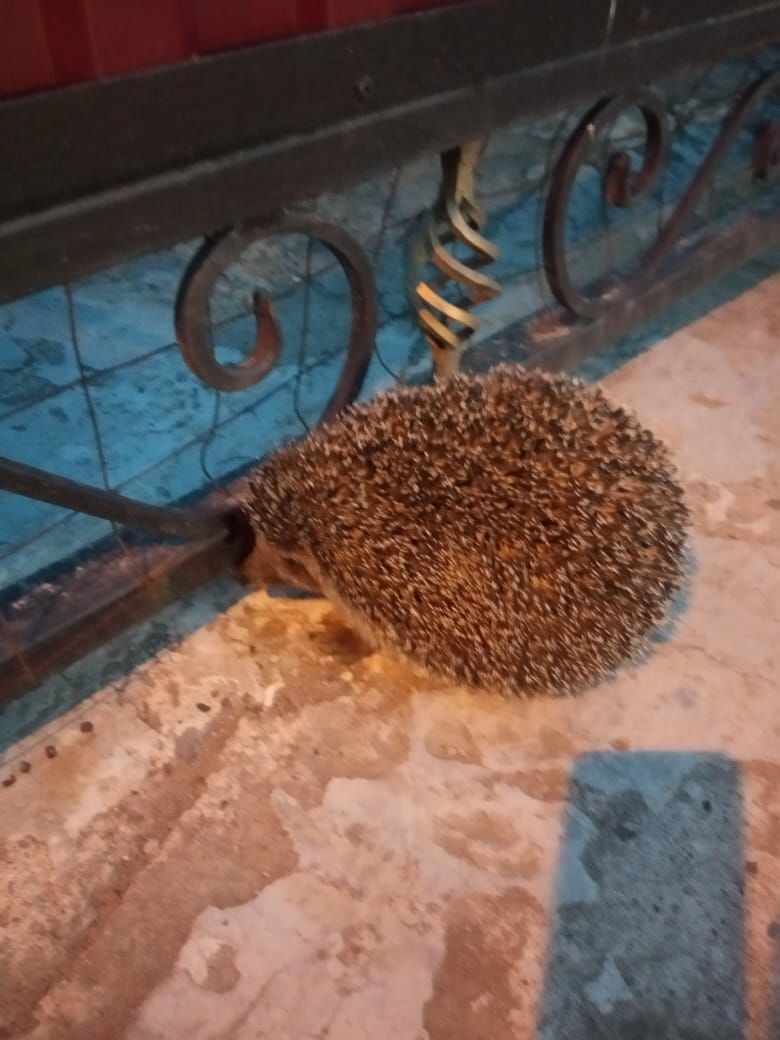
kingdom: Animalia
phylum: Chordata
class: Mammalia
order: Erinaceomorpha
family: Erinaceidae
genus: Erinaceus
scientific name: Erinaceus roumanicus
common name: Northern white-breasted hedgehog
